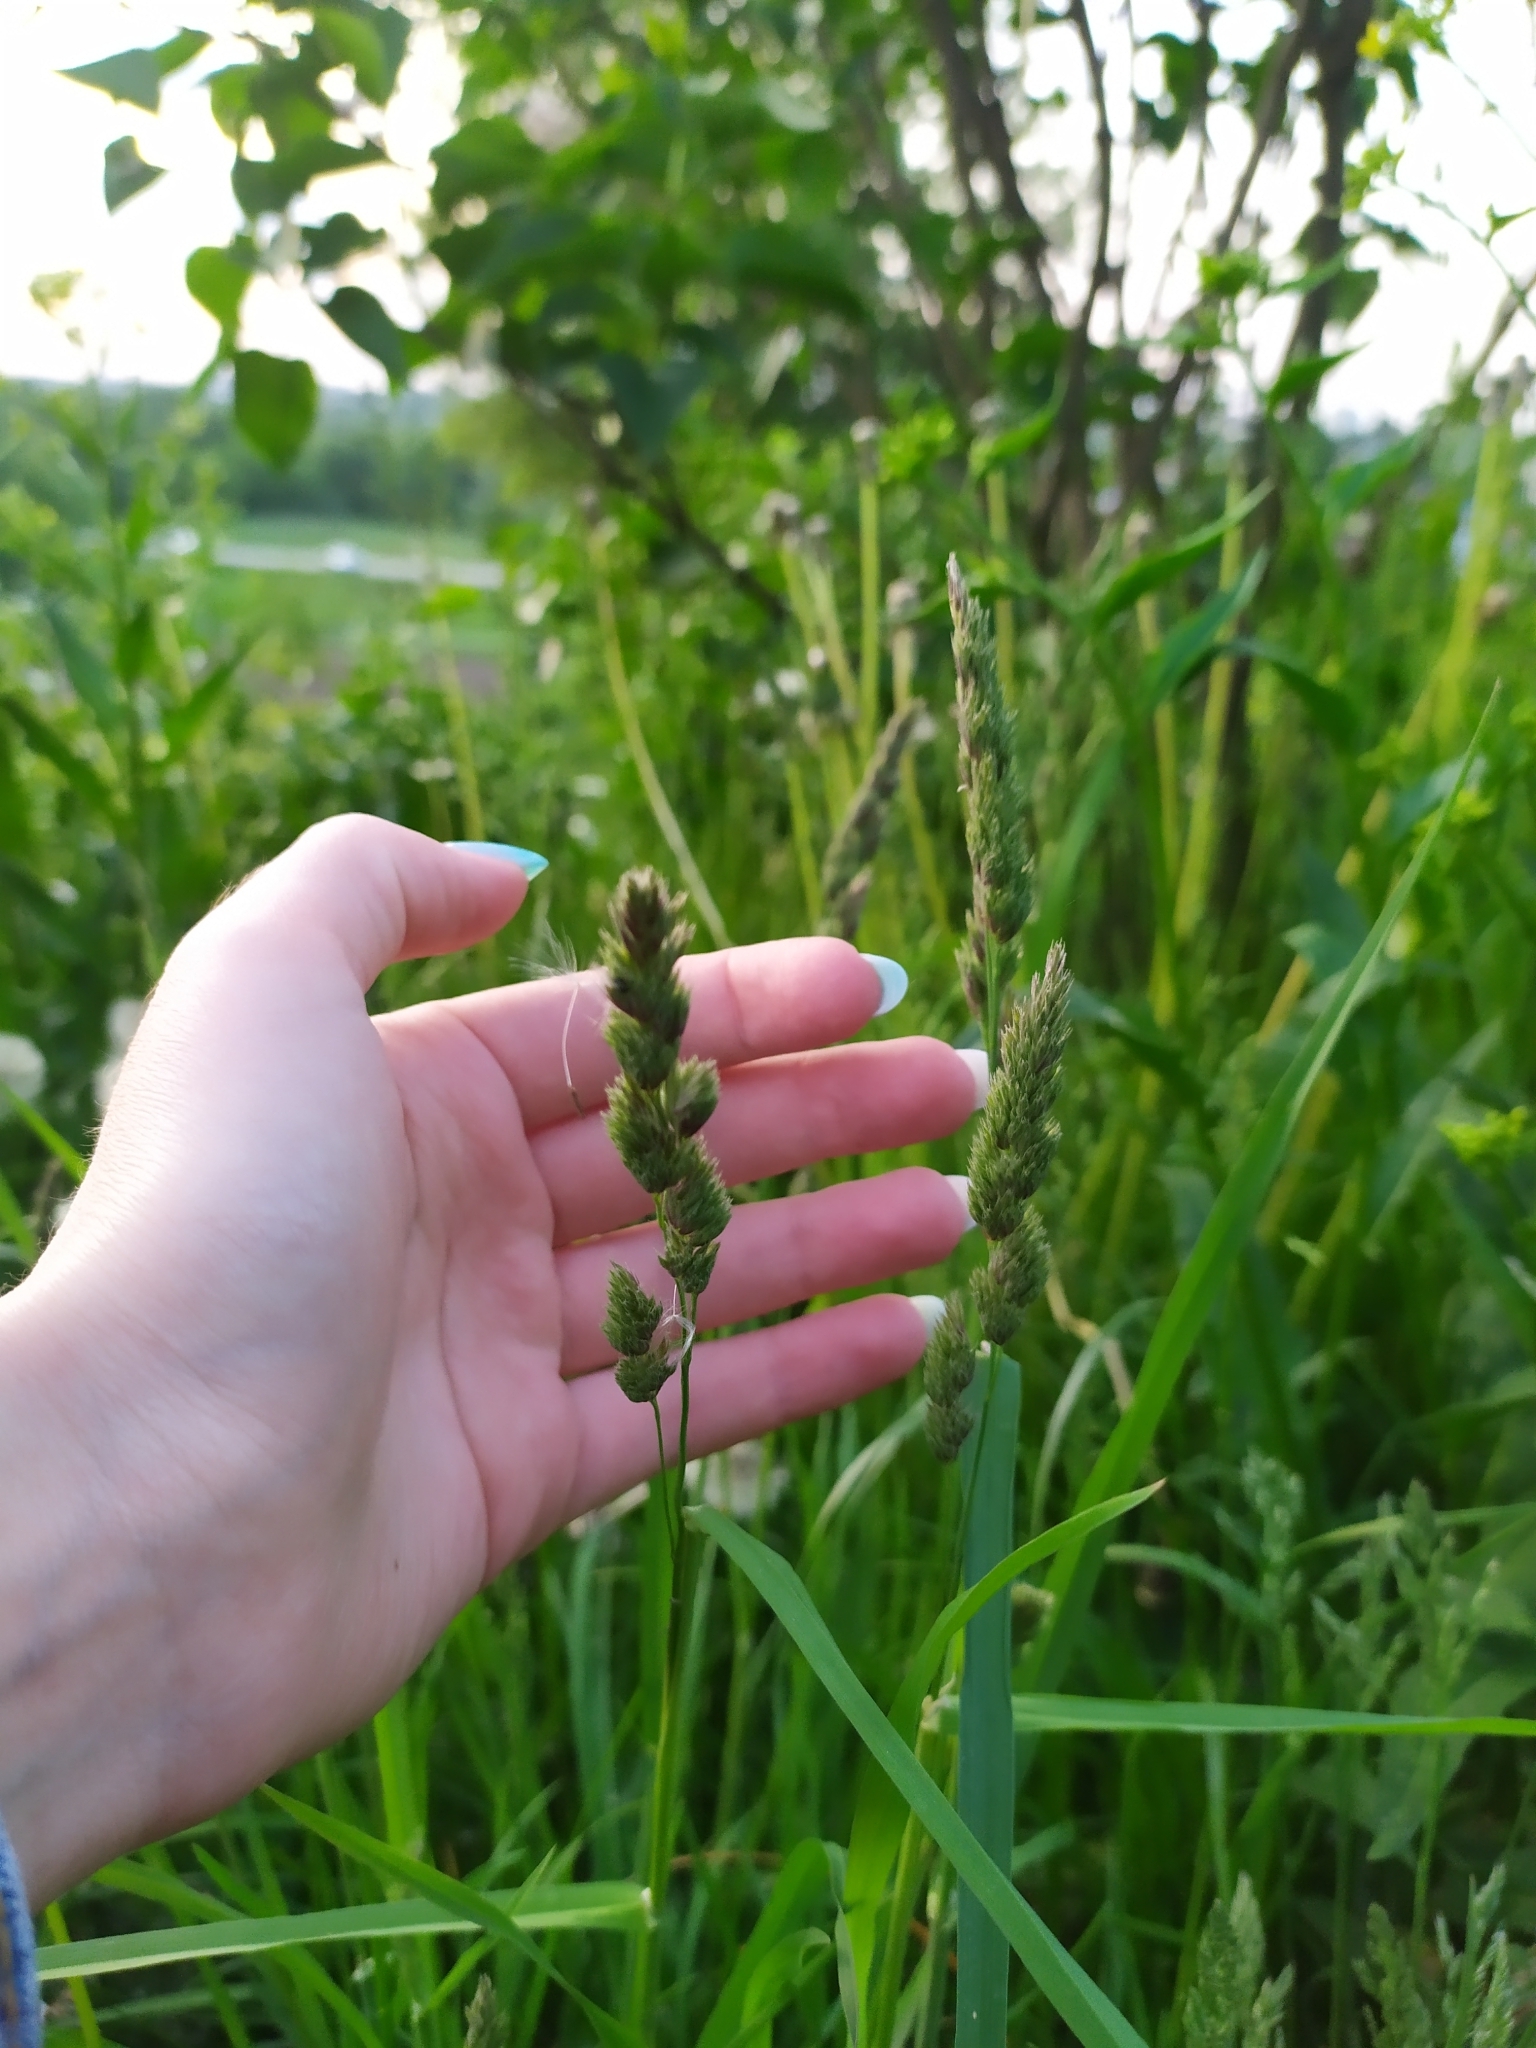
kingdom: Plantae
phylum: Tracheophyta
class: Liliopsida
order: Poales
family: Poaceae
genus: Dactylis
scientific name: Dactylis glomerata
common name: Orchardgrass
